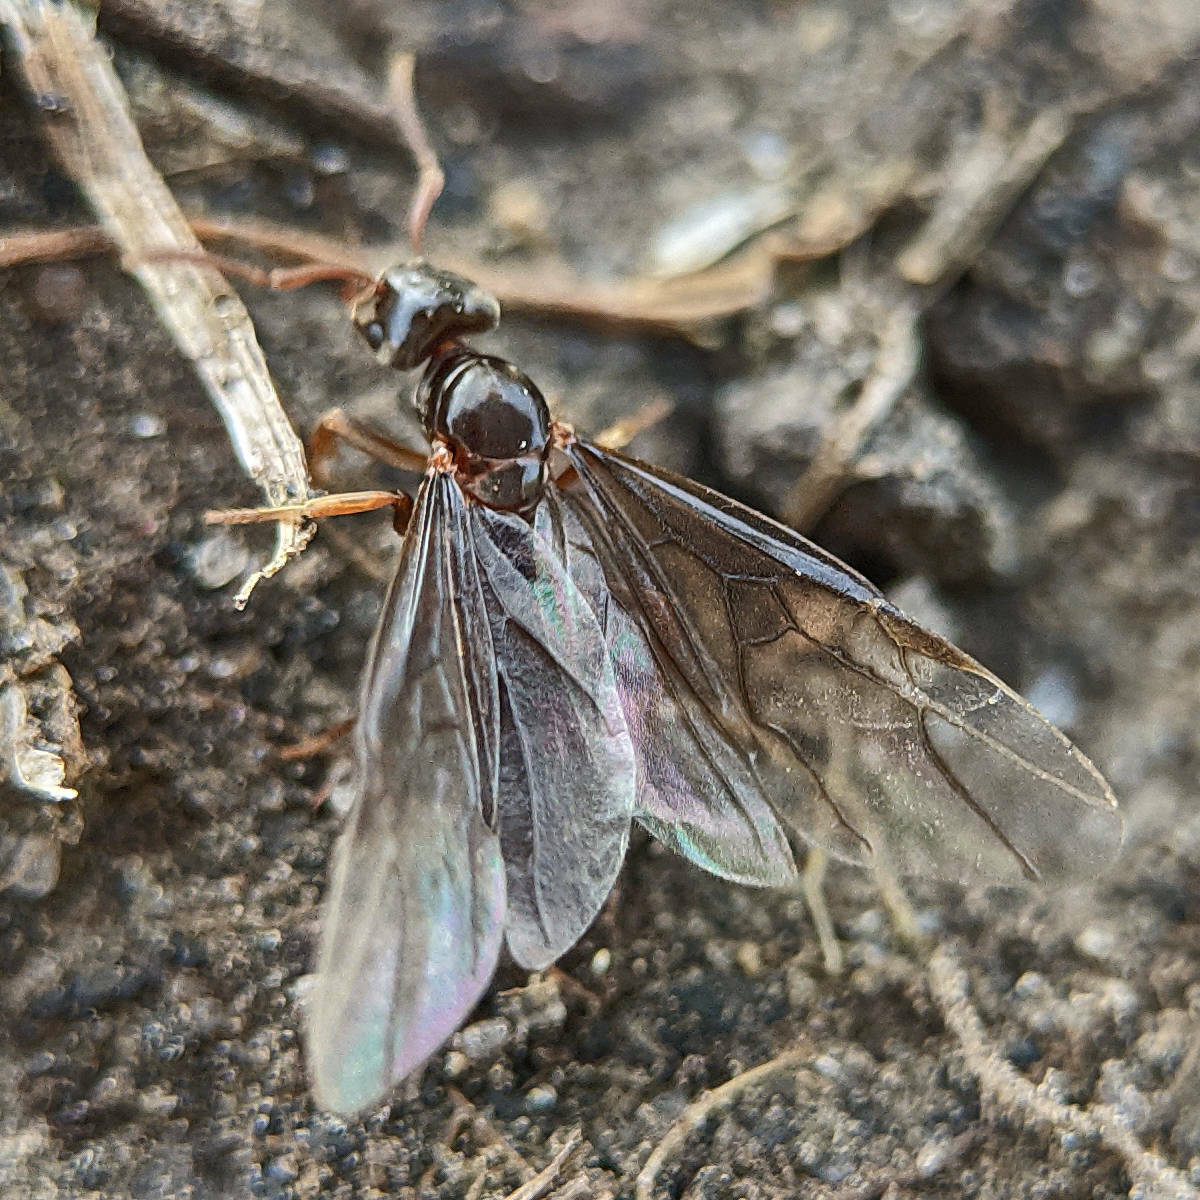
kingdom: Animalia
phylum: Arthropoda
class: Insecta
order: Hymenoptera
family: Formicidae
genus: Chthonolasius
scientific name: Chthonolasius
